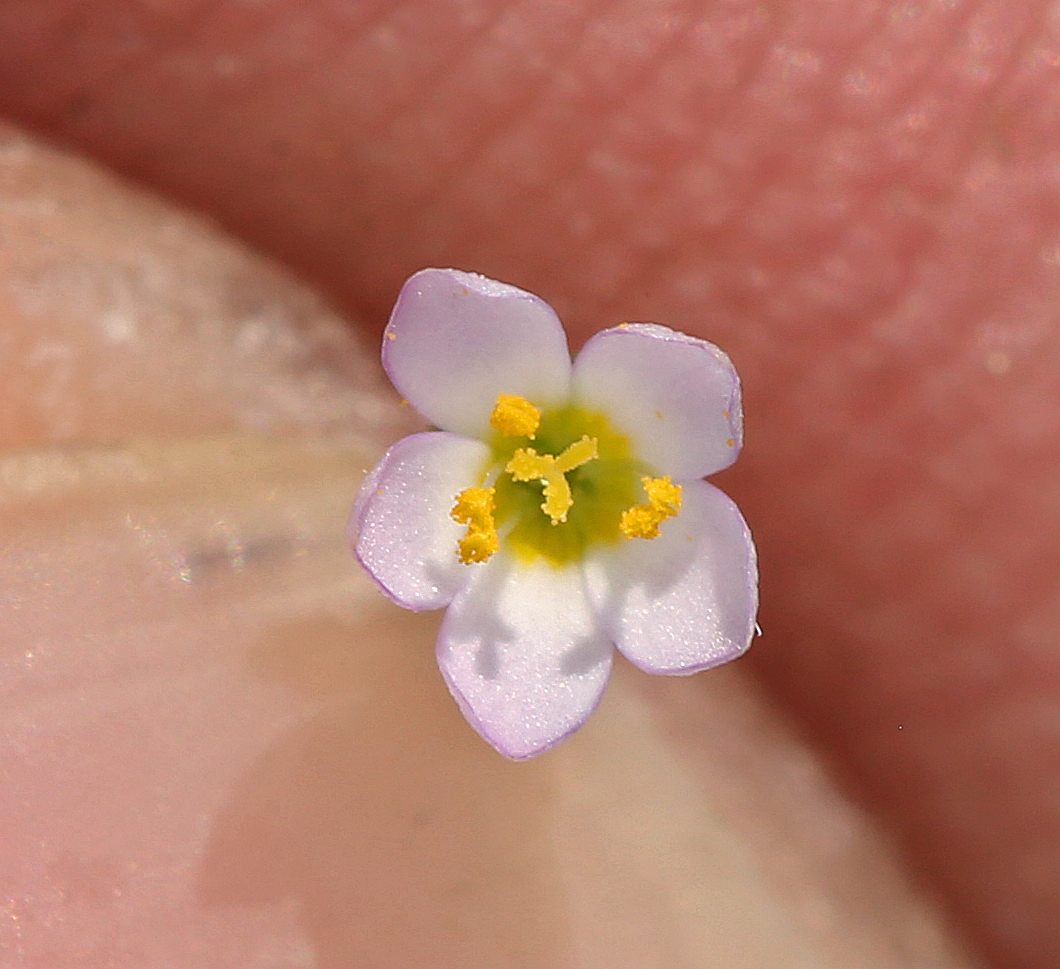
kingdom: Plantae
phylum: Tracheophyta
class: Magnoliopsida
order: Ericales
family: Polemoniaceae
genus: Leptosiphon
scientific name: Leptosiphon septentrionalis
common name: Northern linanthus
